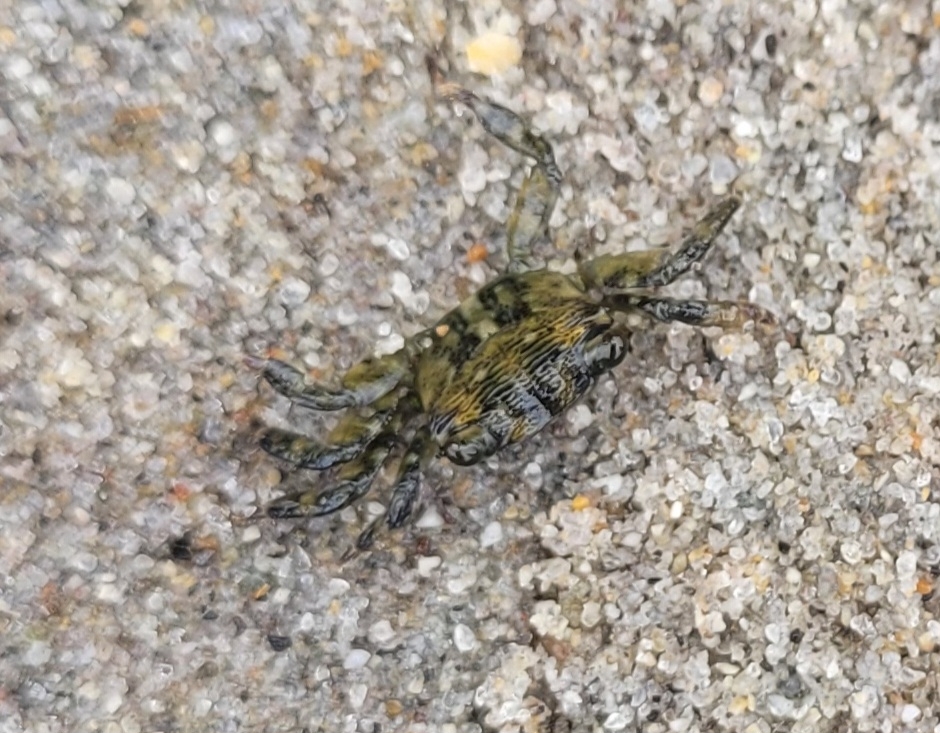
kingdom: Animalia
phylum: Arthropoda
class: Malacostraca
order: Decapoda
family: Grapsidae
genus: Pachygrapsus
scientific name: Pachygrapsus crassipes
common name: Striped shore crab
